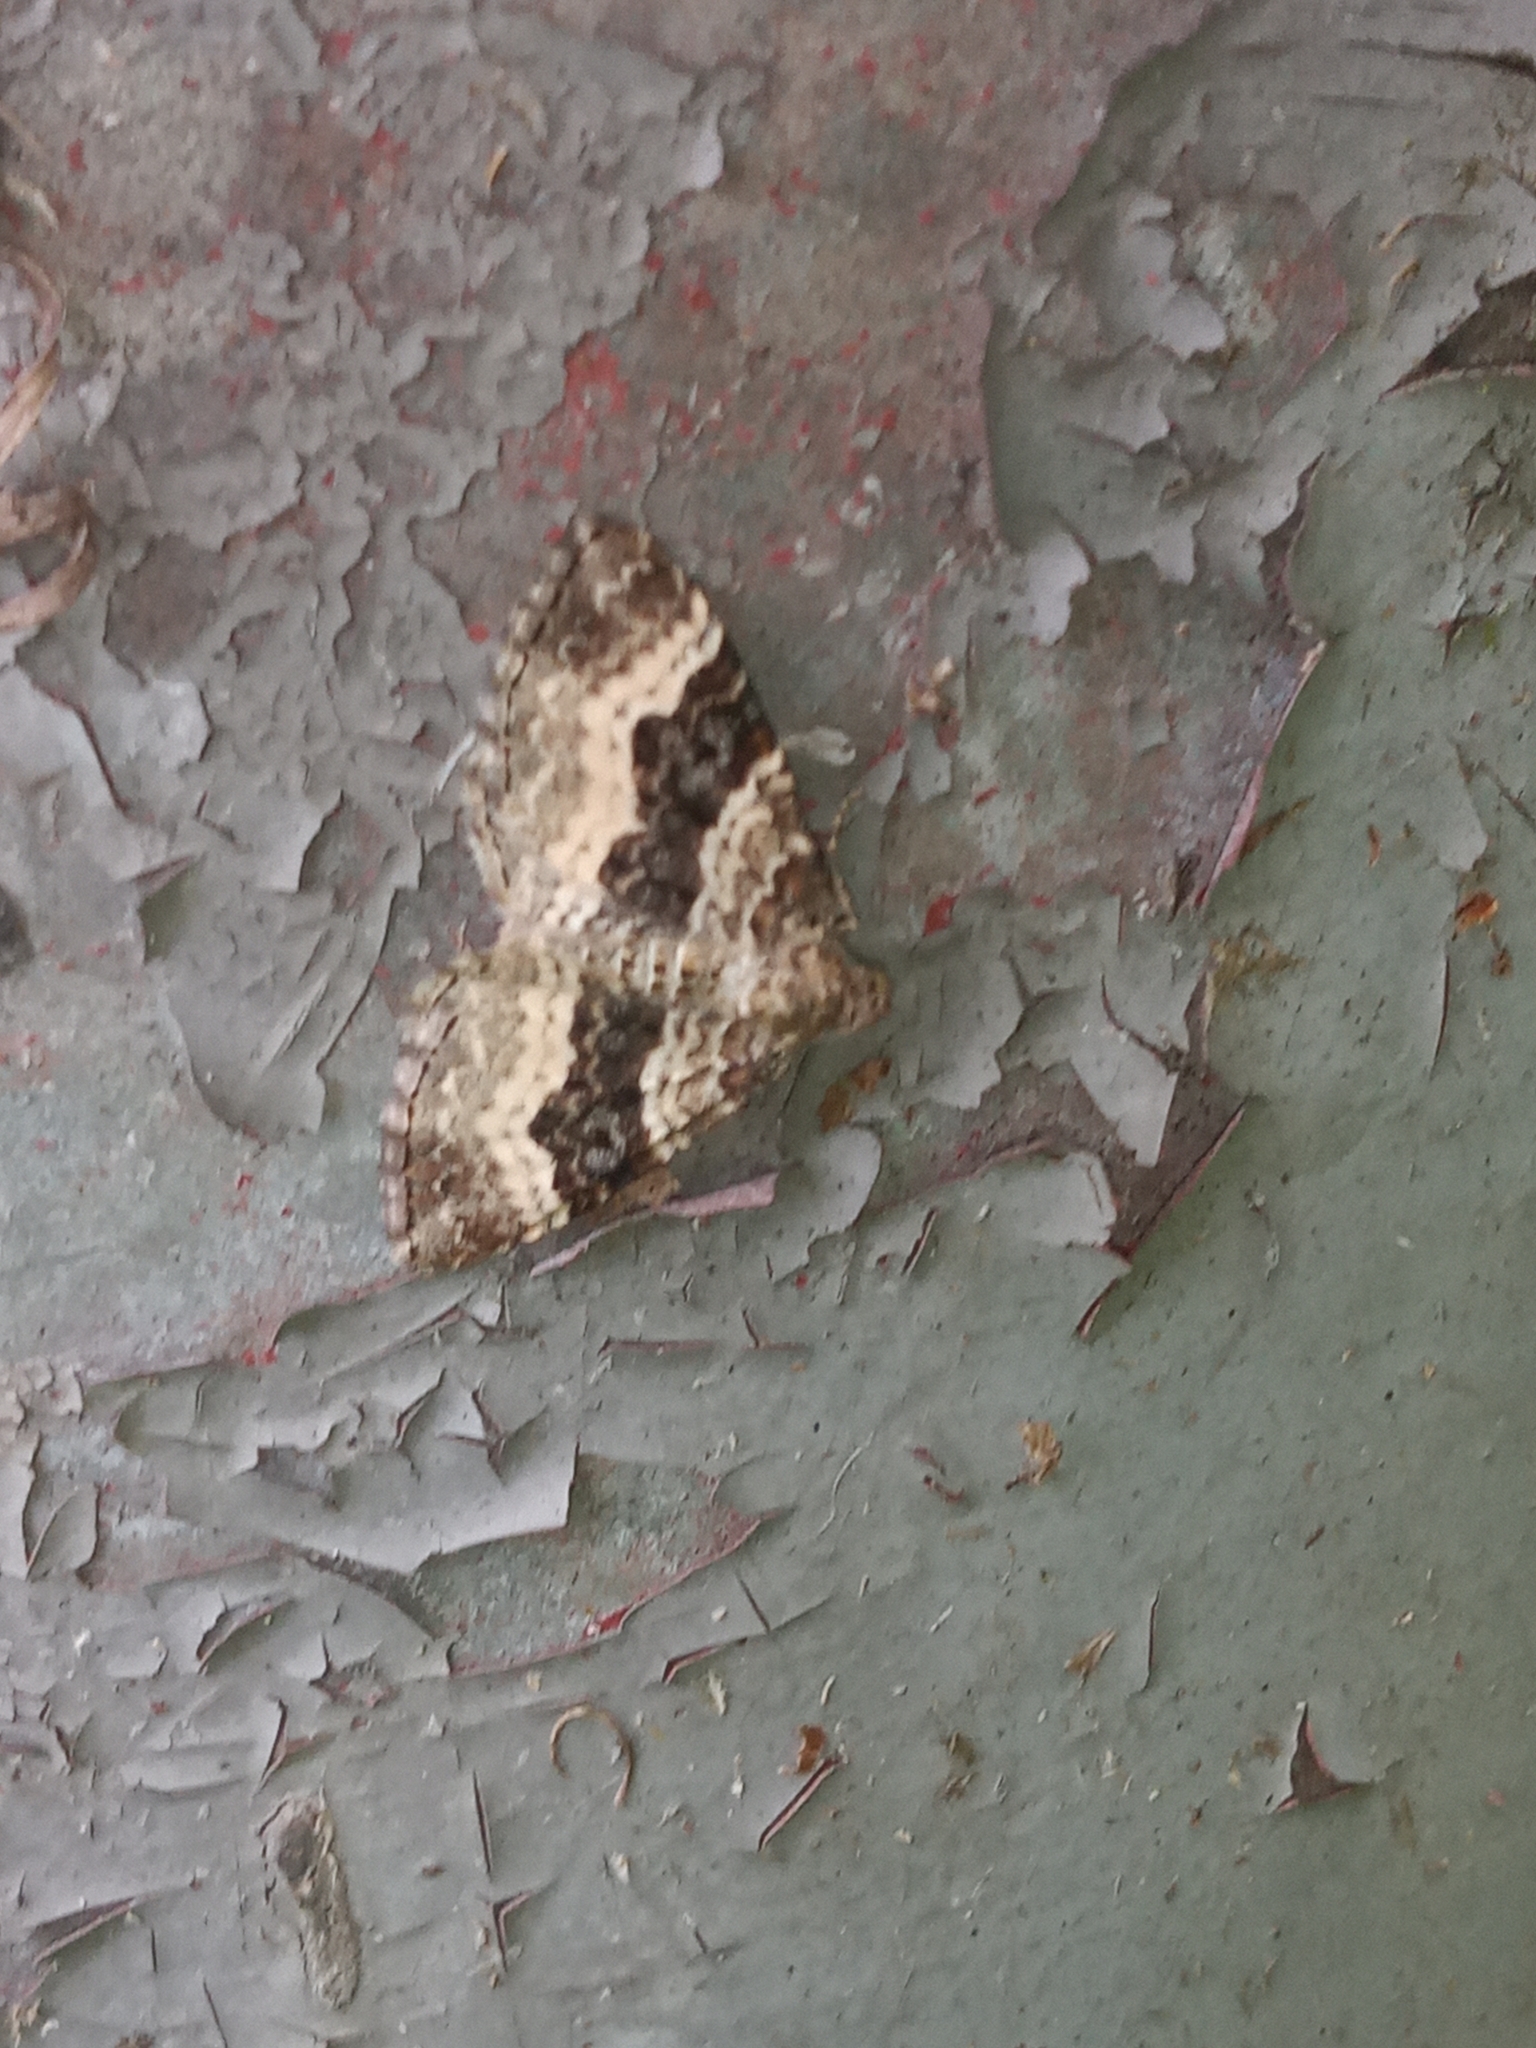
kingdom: Animalia
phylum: Arthropoda
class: Insecta
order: Lepidoptera
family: Geometridae
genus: Epirrhoe
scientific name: Epirrhoe alternata
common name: Common carpet
